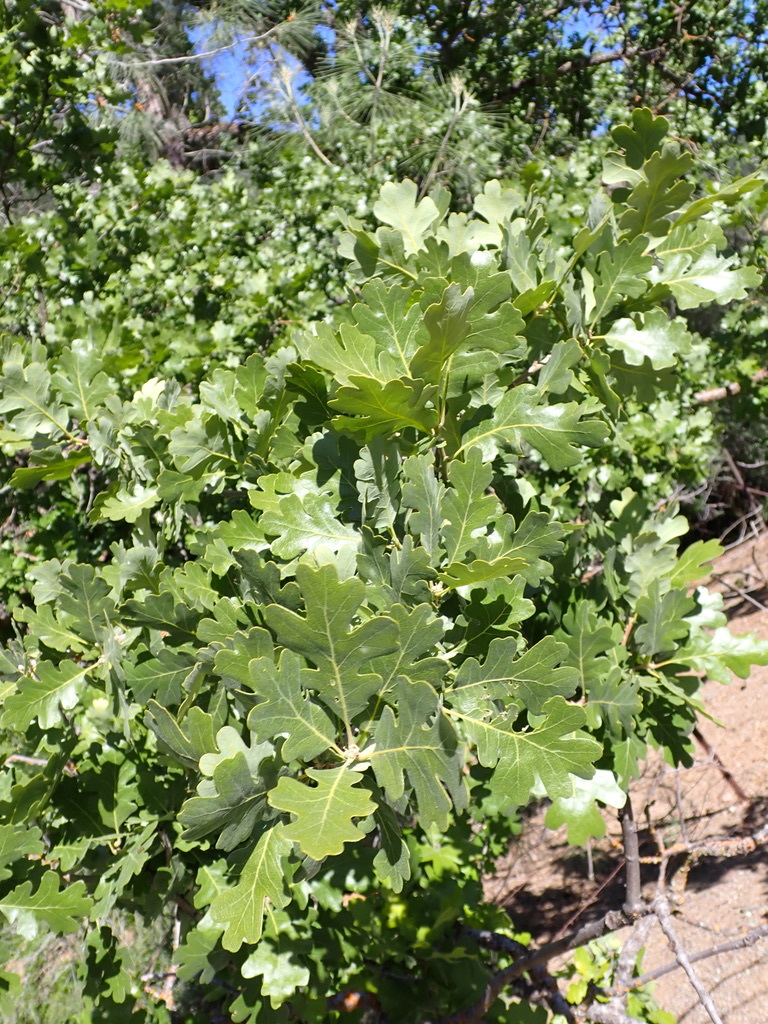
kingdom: Plantae
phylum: Tracheophyta
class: Magnoliopsida
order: Fagales
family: Fagaceae
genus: Quercus
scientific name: Quercus lobata
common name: Valley oak
